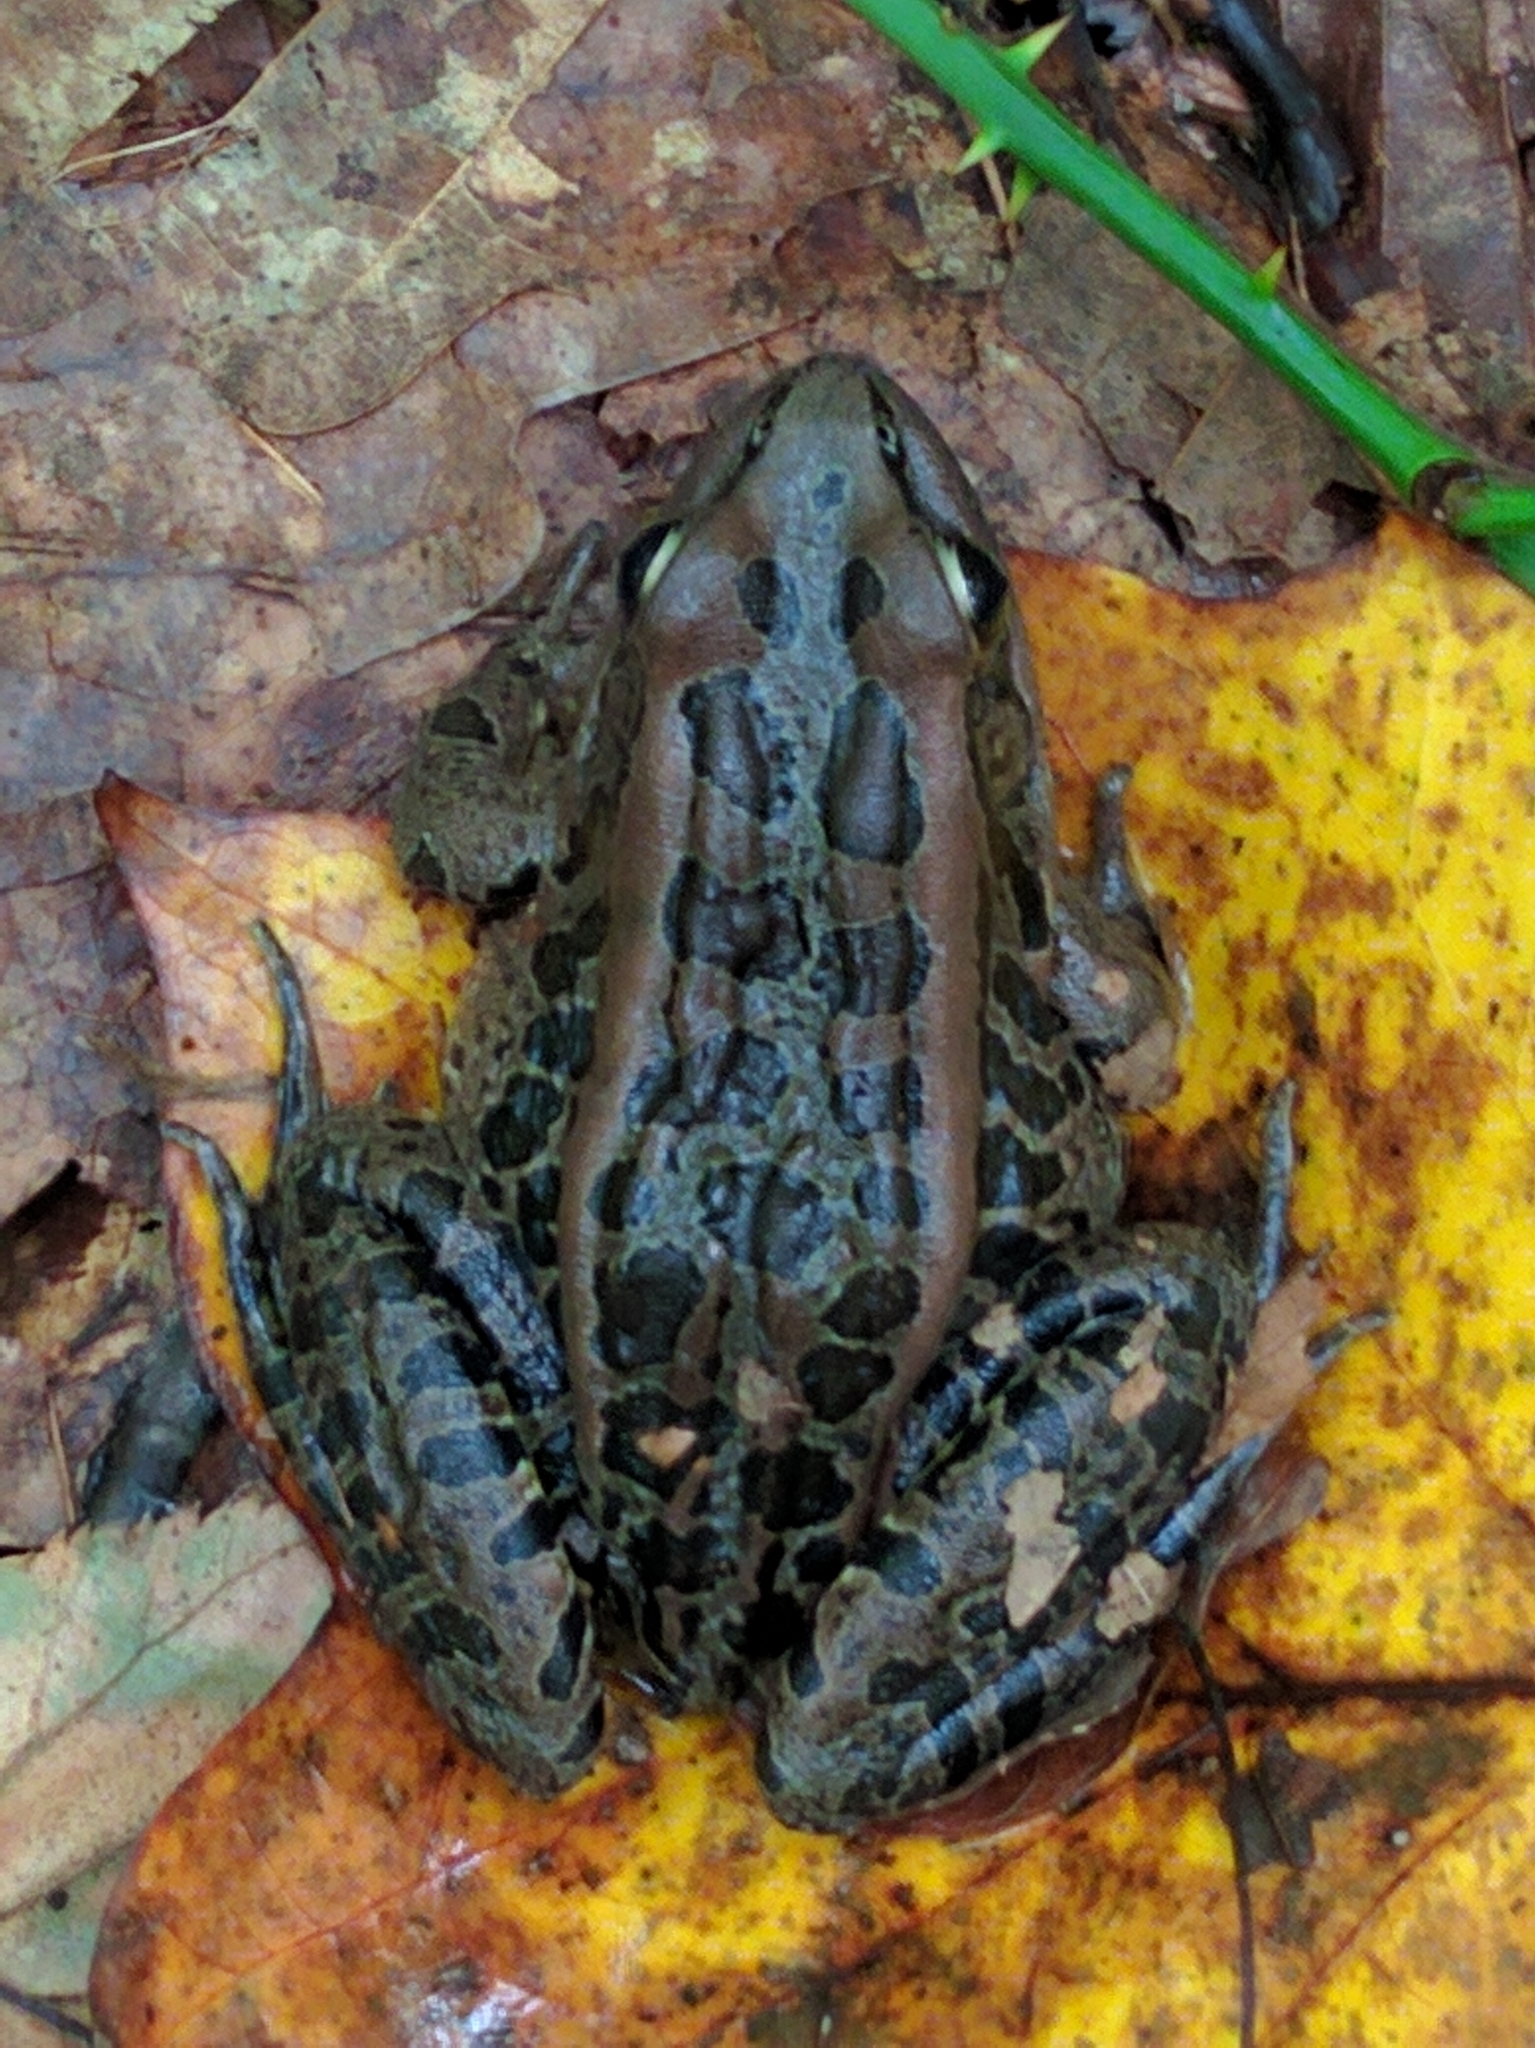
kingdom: Animalia
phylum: Chordata
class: Amphibia
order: Anura
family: Ranidae
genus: Lithobates
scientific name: Lithobates palustris
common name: Pickerel frog
